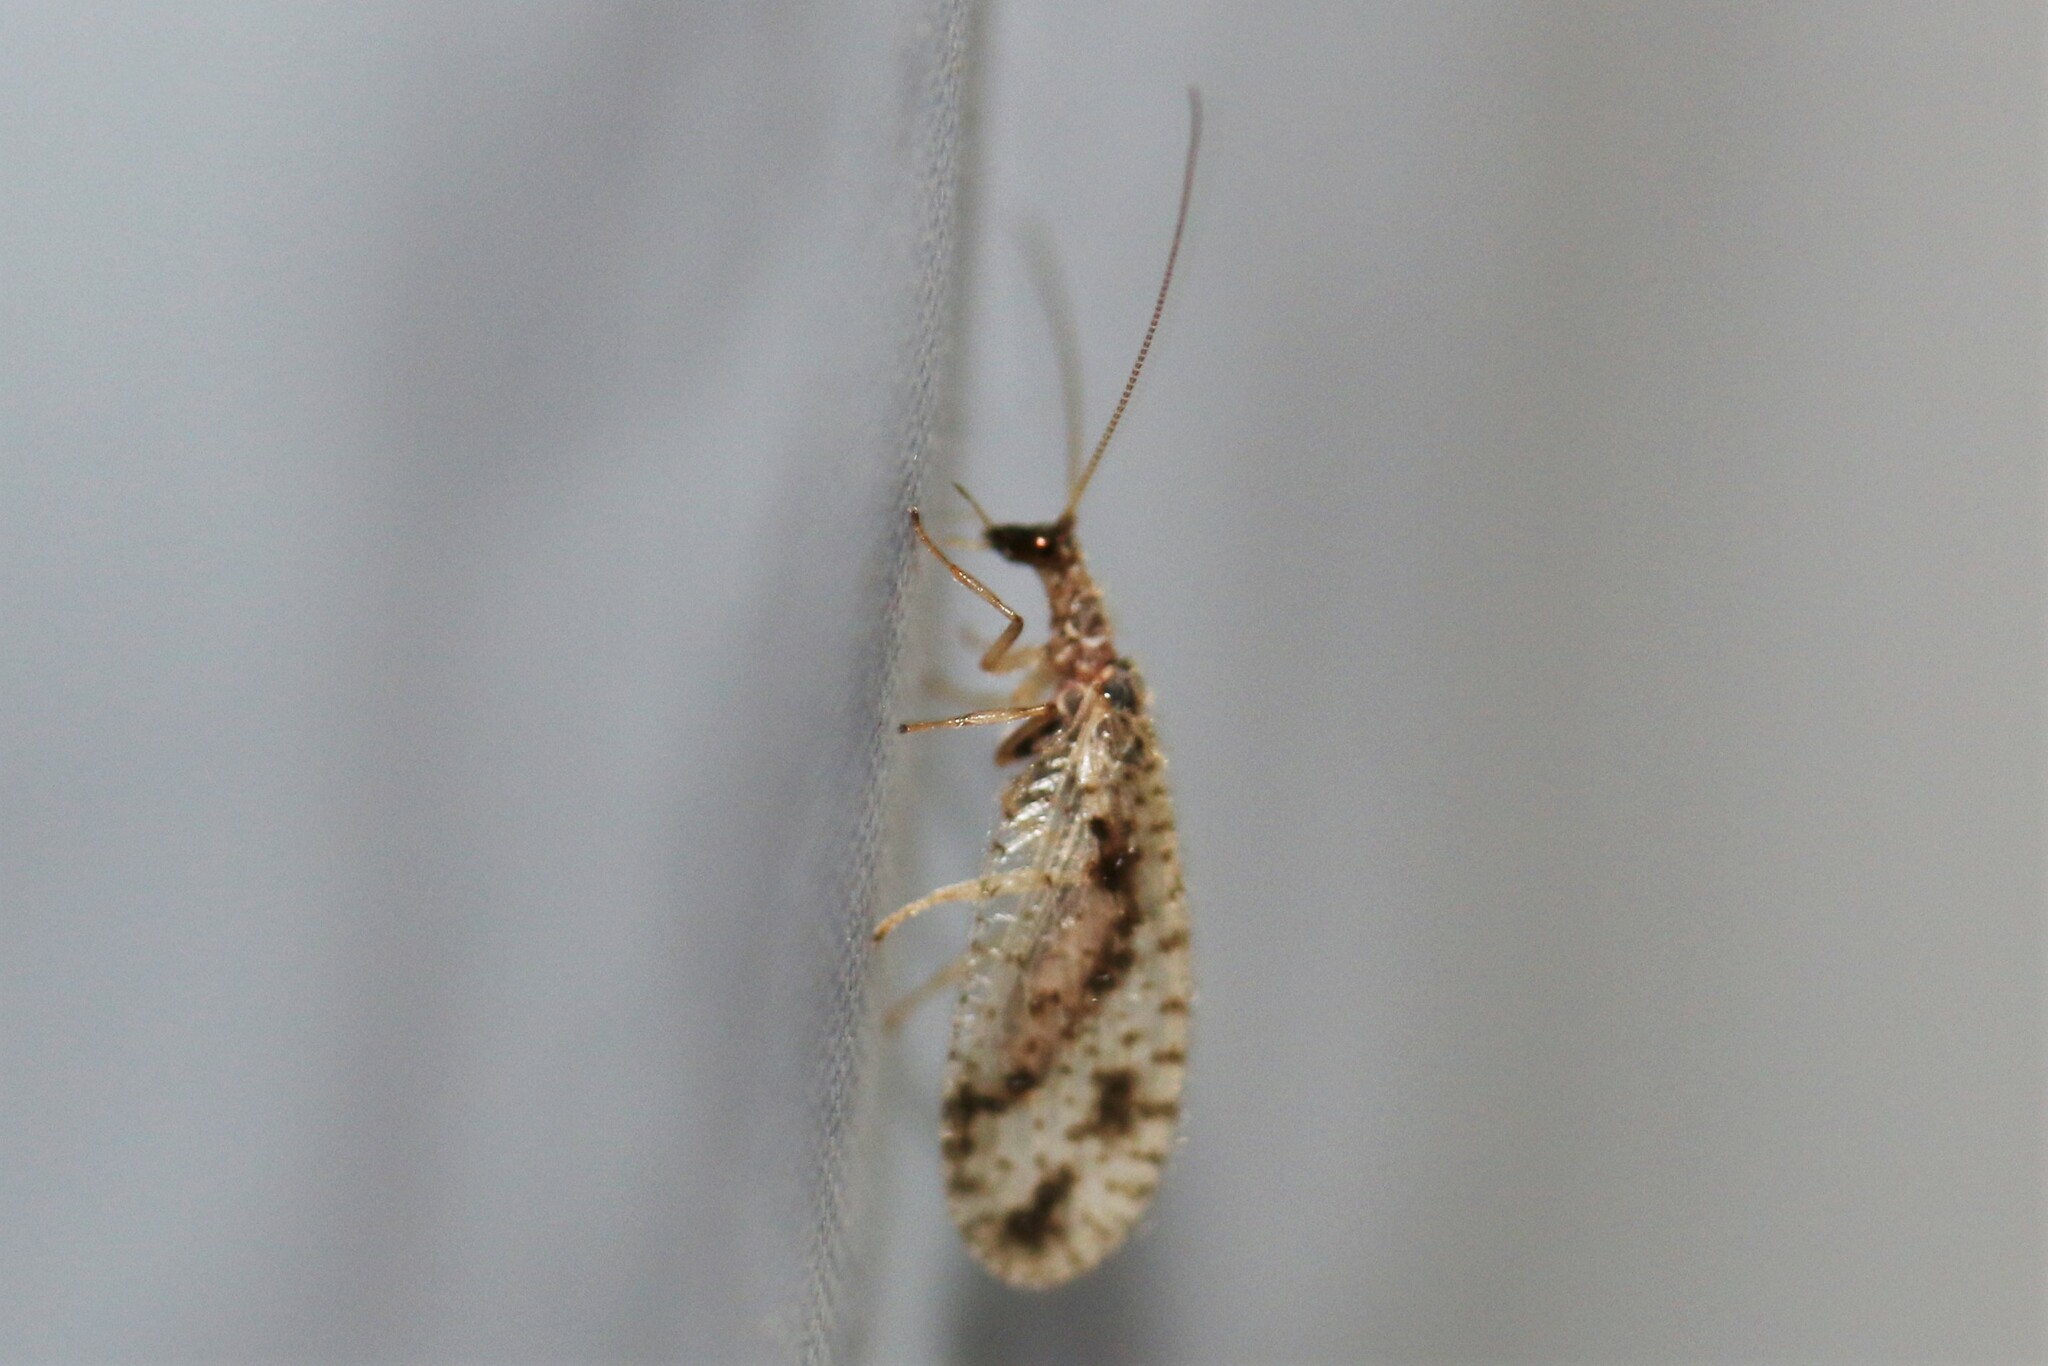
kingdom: Animalia
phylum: Arthropoda
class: Insecta
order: Neuroptera
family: Hemerobiidae
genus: Micromus
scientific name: Micromus variegatus
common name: Brown lacewing
